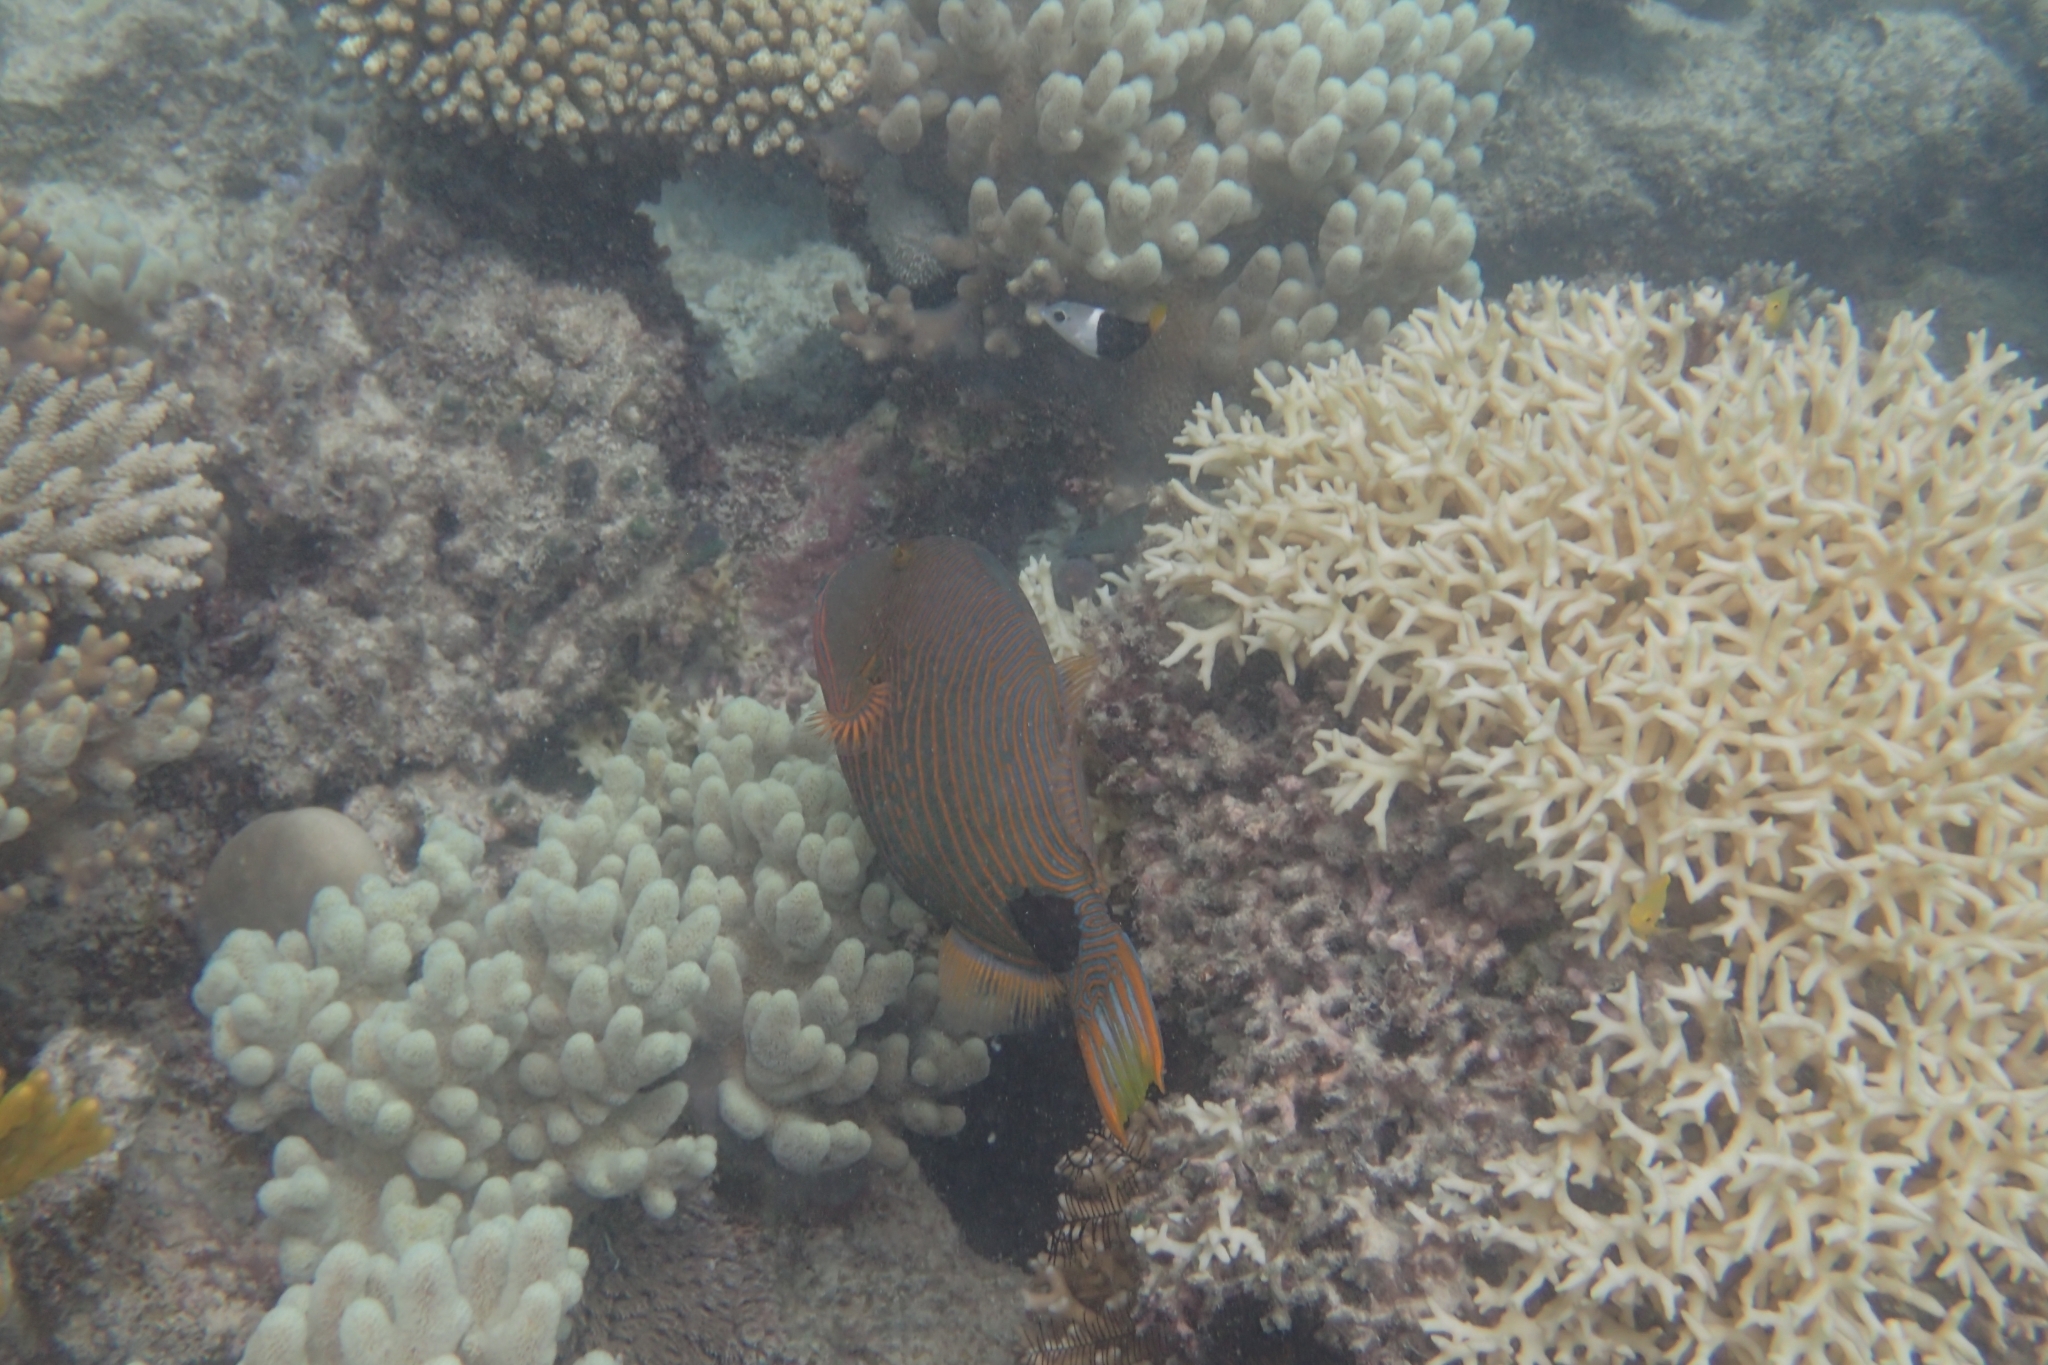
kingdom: Animalia
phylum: Chordata
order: Tetraodontiformes
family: Balistidae
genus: Balistapus
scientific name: Balistapus undulatus
